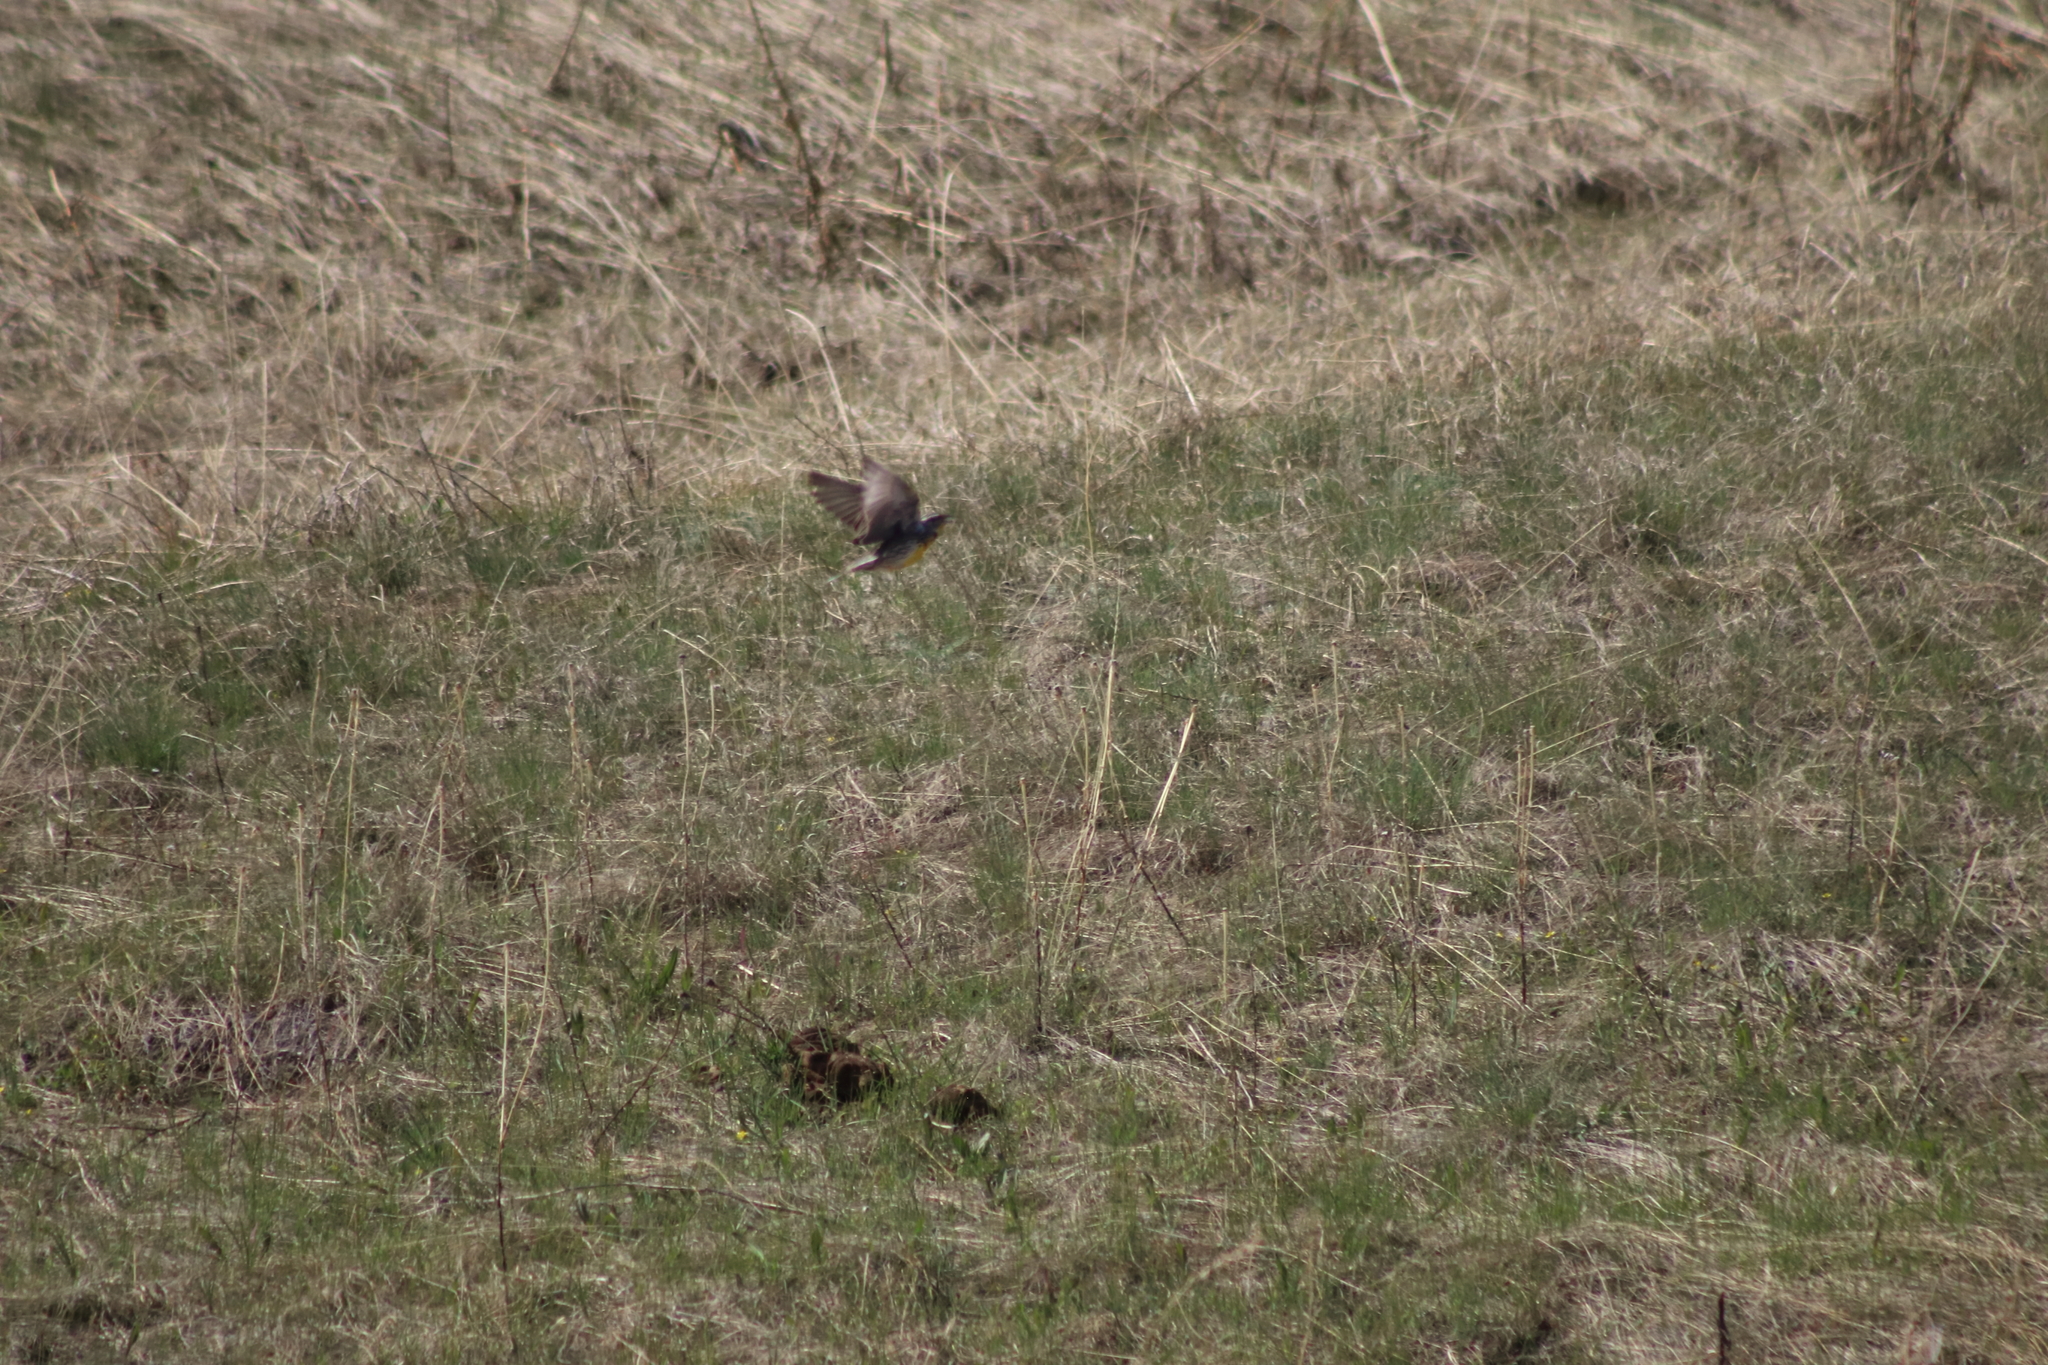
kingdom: Animalia
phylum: Chordata
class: Aves
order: Passeriformes
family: Icteridae
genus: Sturnella
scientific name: Sturnella neglecta
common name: Western meadowlark
